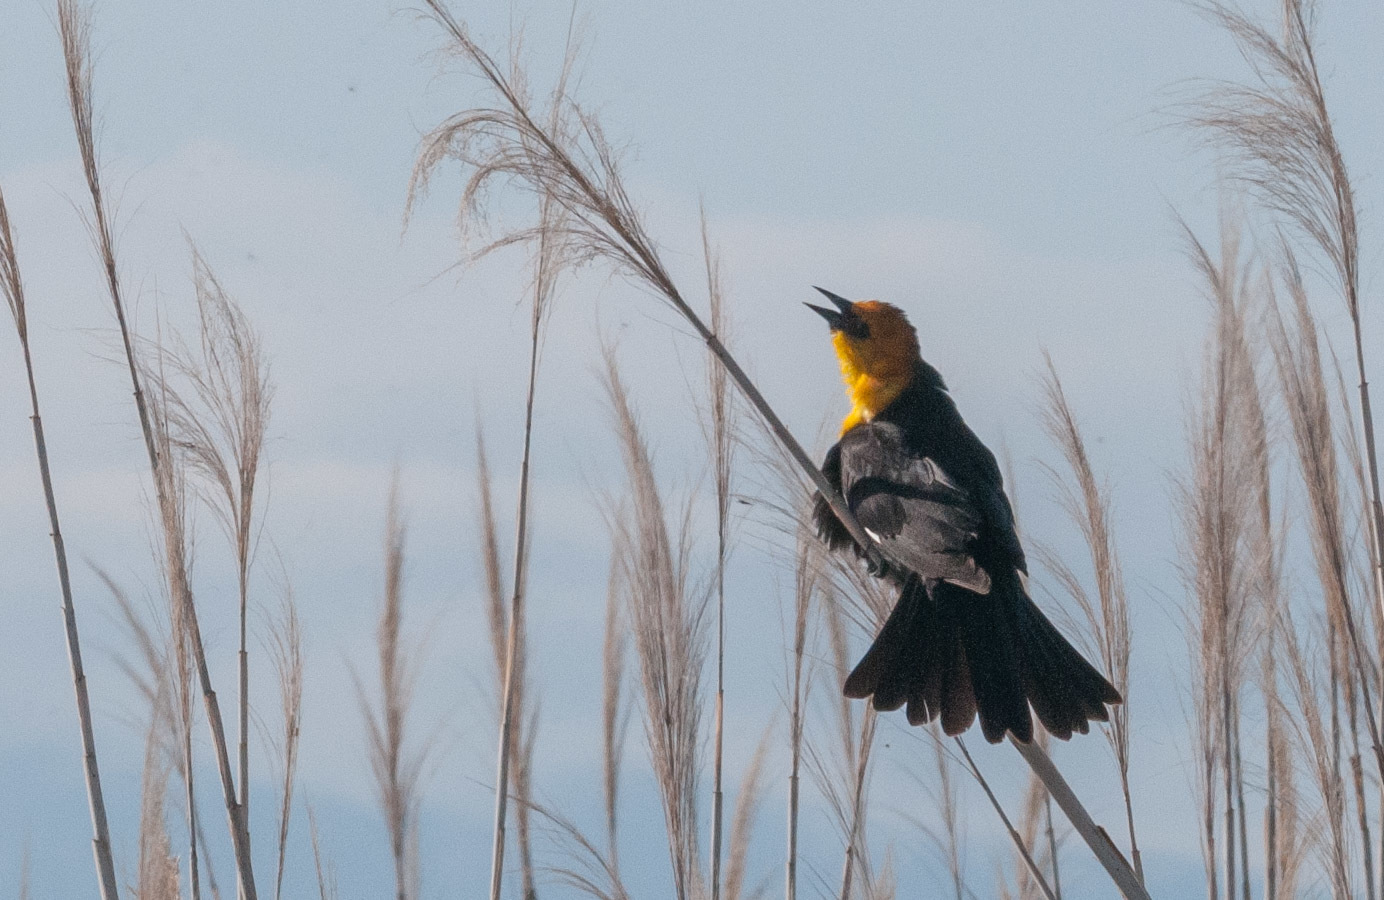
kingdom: Animalia
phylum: Chordata
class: Aves
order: Passeriformes
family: Icteridae
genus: Xanthocephalus
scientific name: Xanthocephalus xanthocephalus
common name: Yellow-headed blackbird
